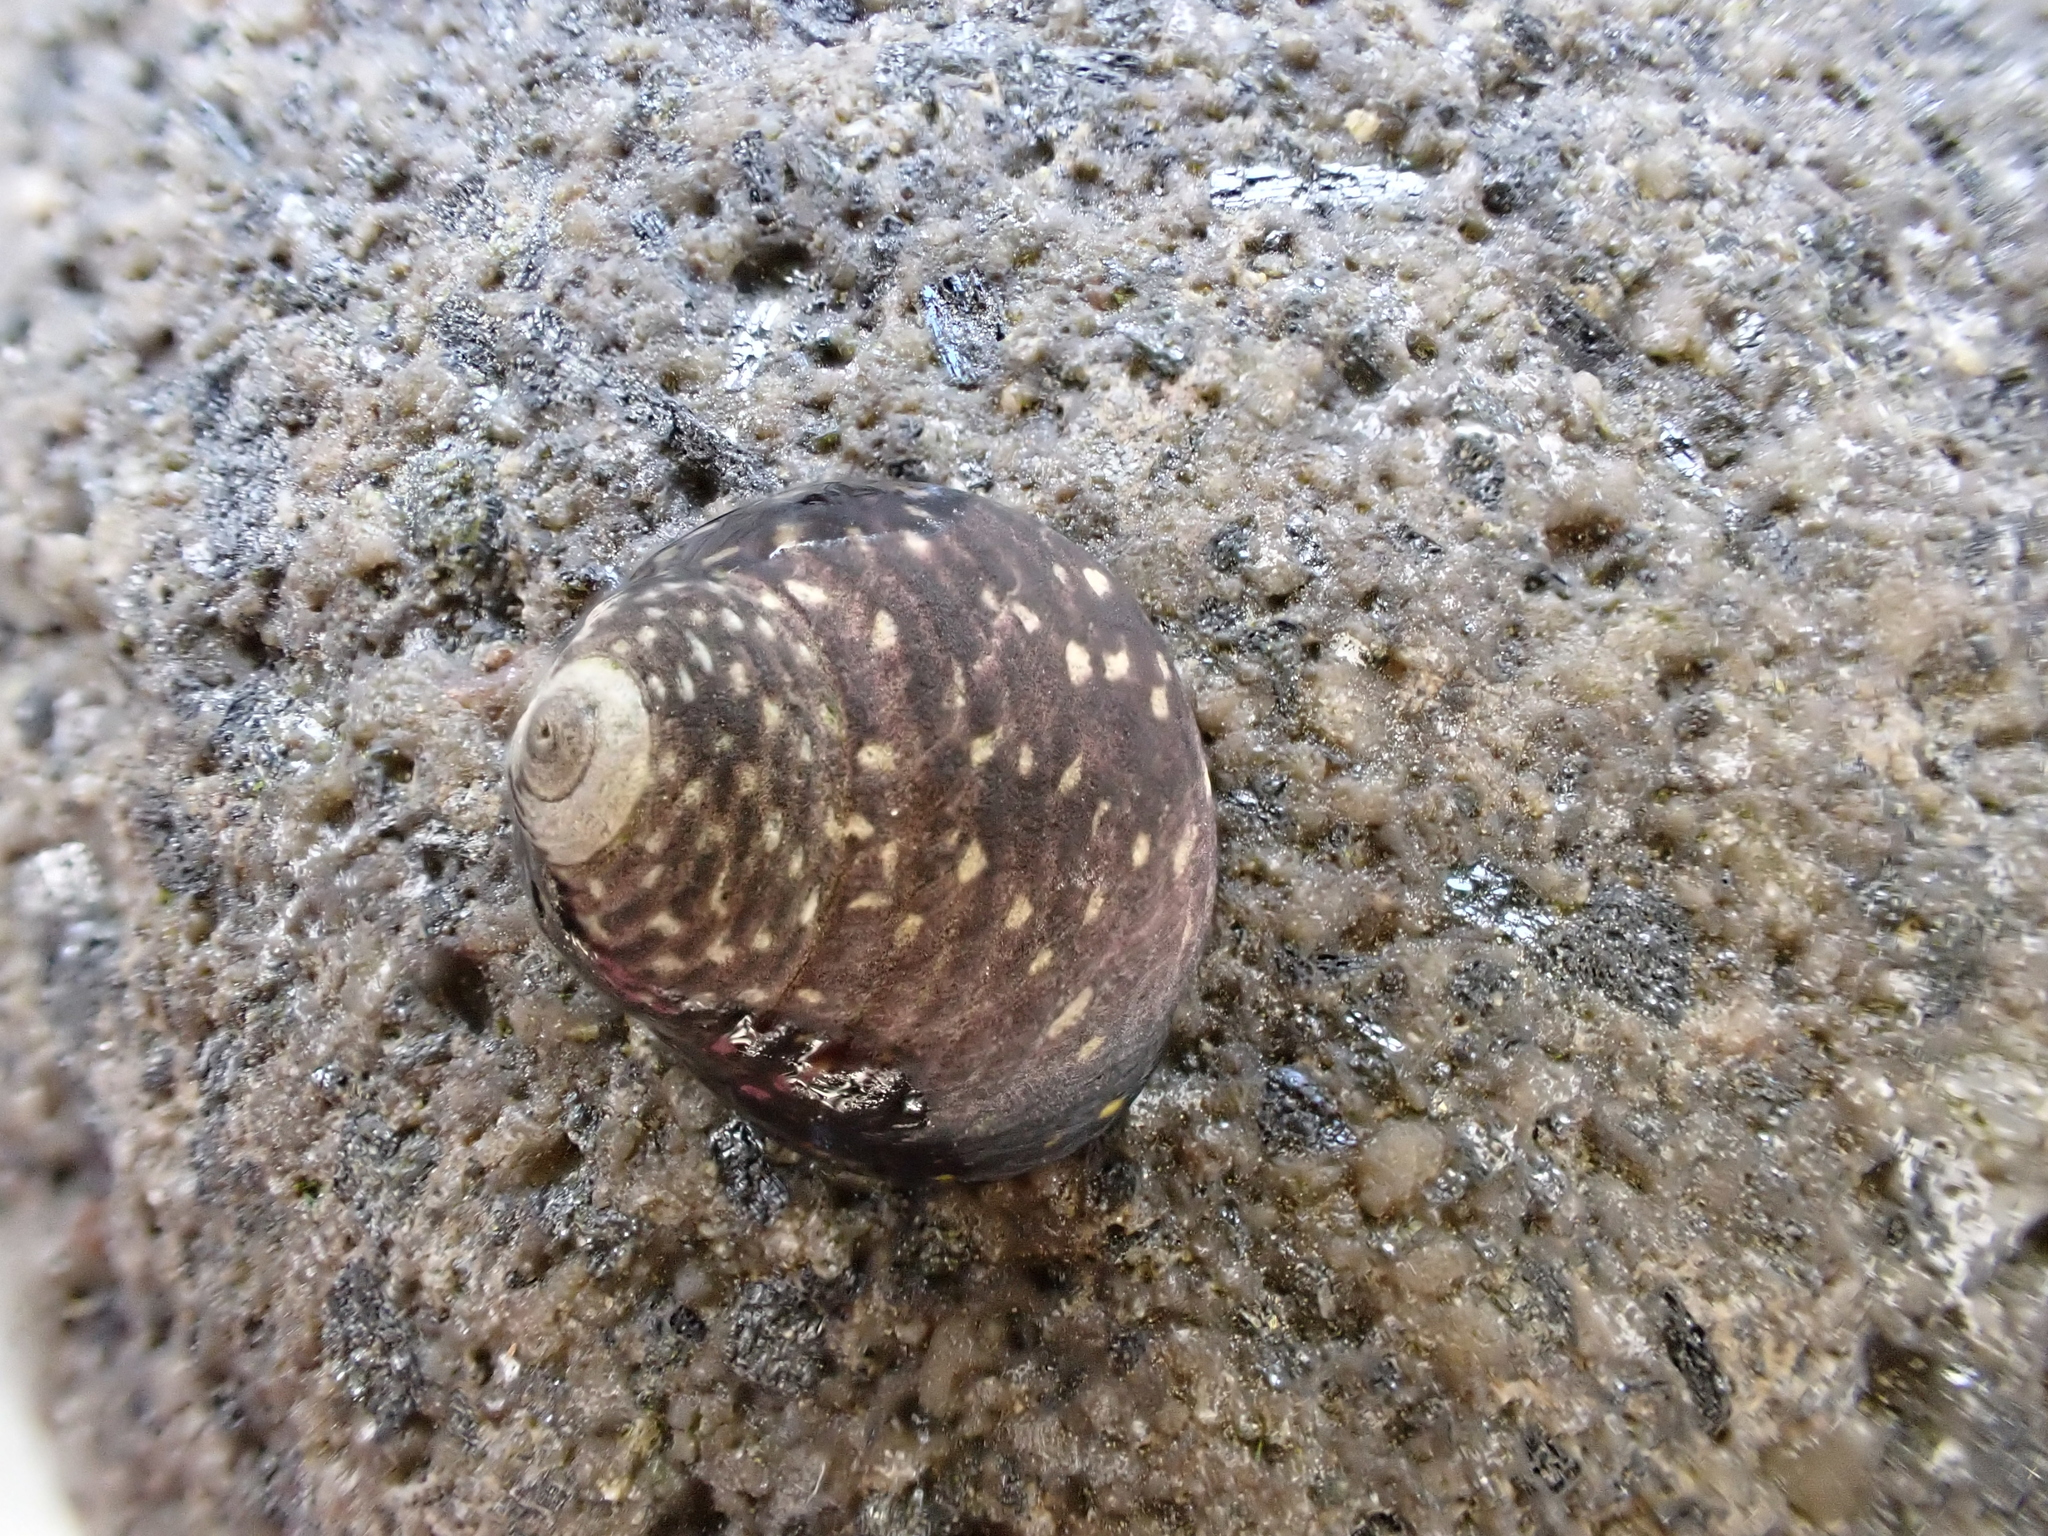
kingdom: Animalia
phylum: Mollusca
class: Gastropoda
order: Trochida
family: Trochidae
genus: Diloma
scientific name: Diloma aridum
